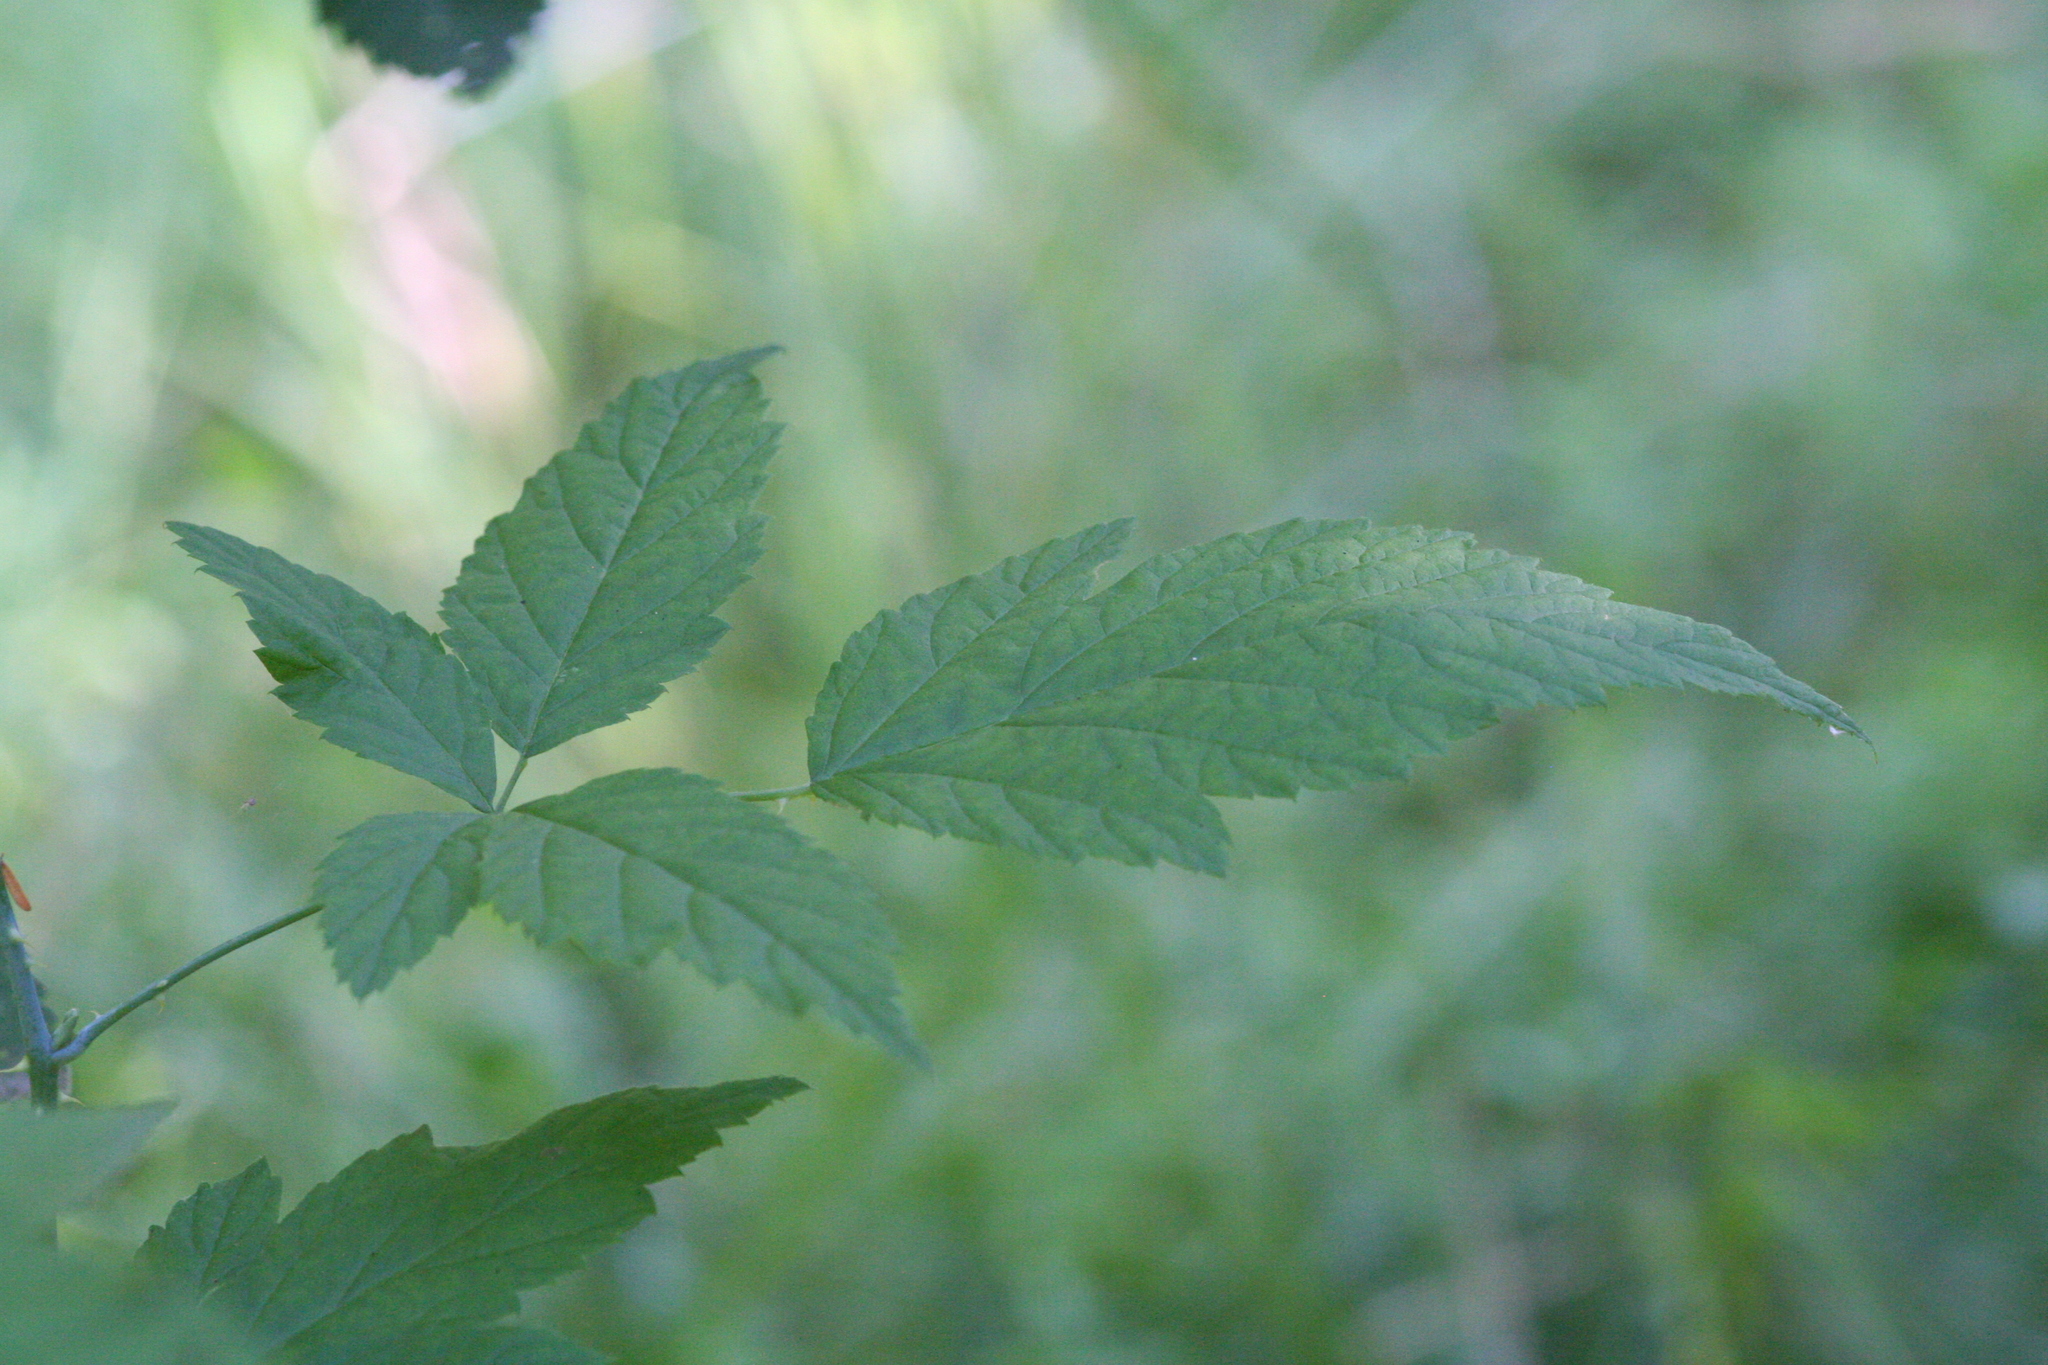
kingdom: Plantae
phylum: Tracheophyta
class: Magnoliopsida
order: Rosales
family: Rosaceae
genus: Rubus
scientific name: Rubus leucodermis
